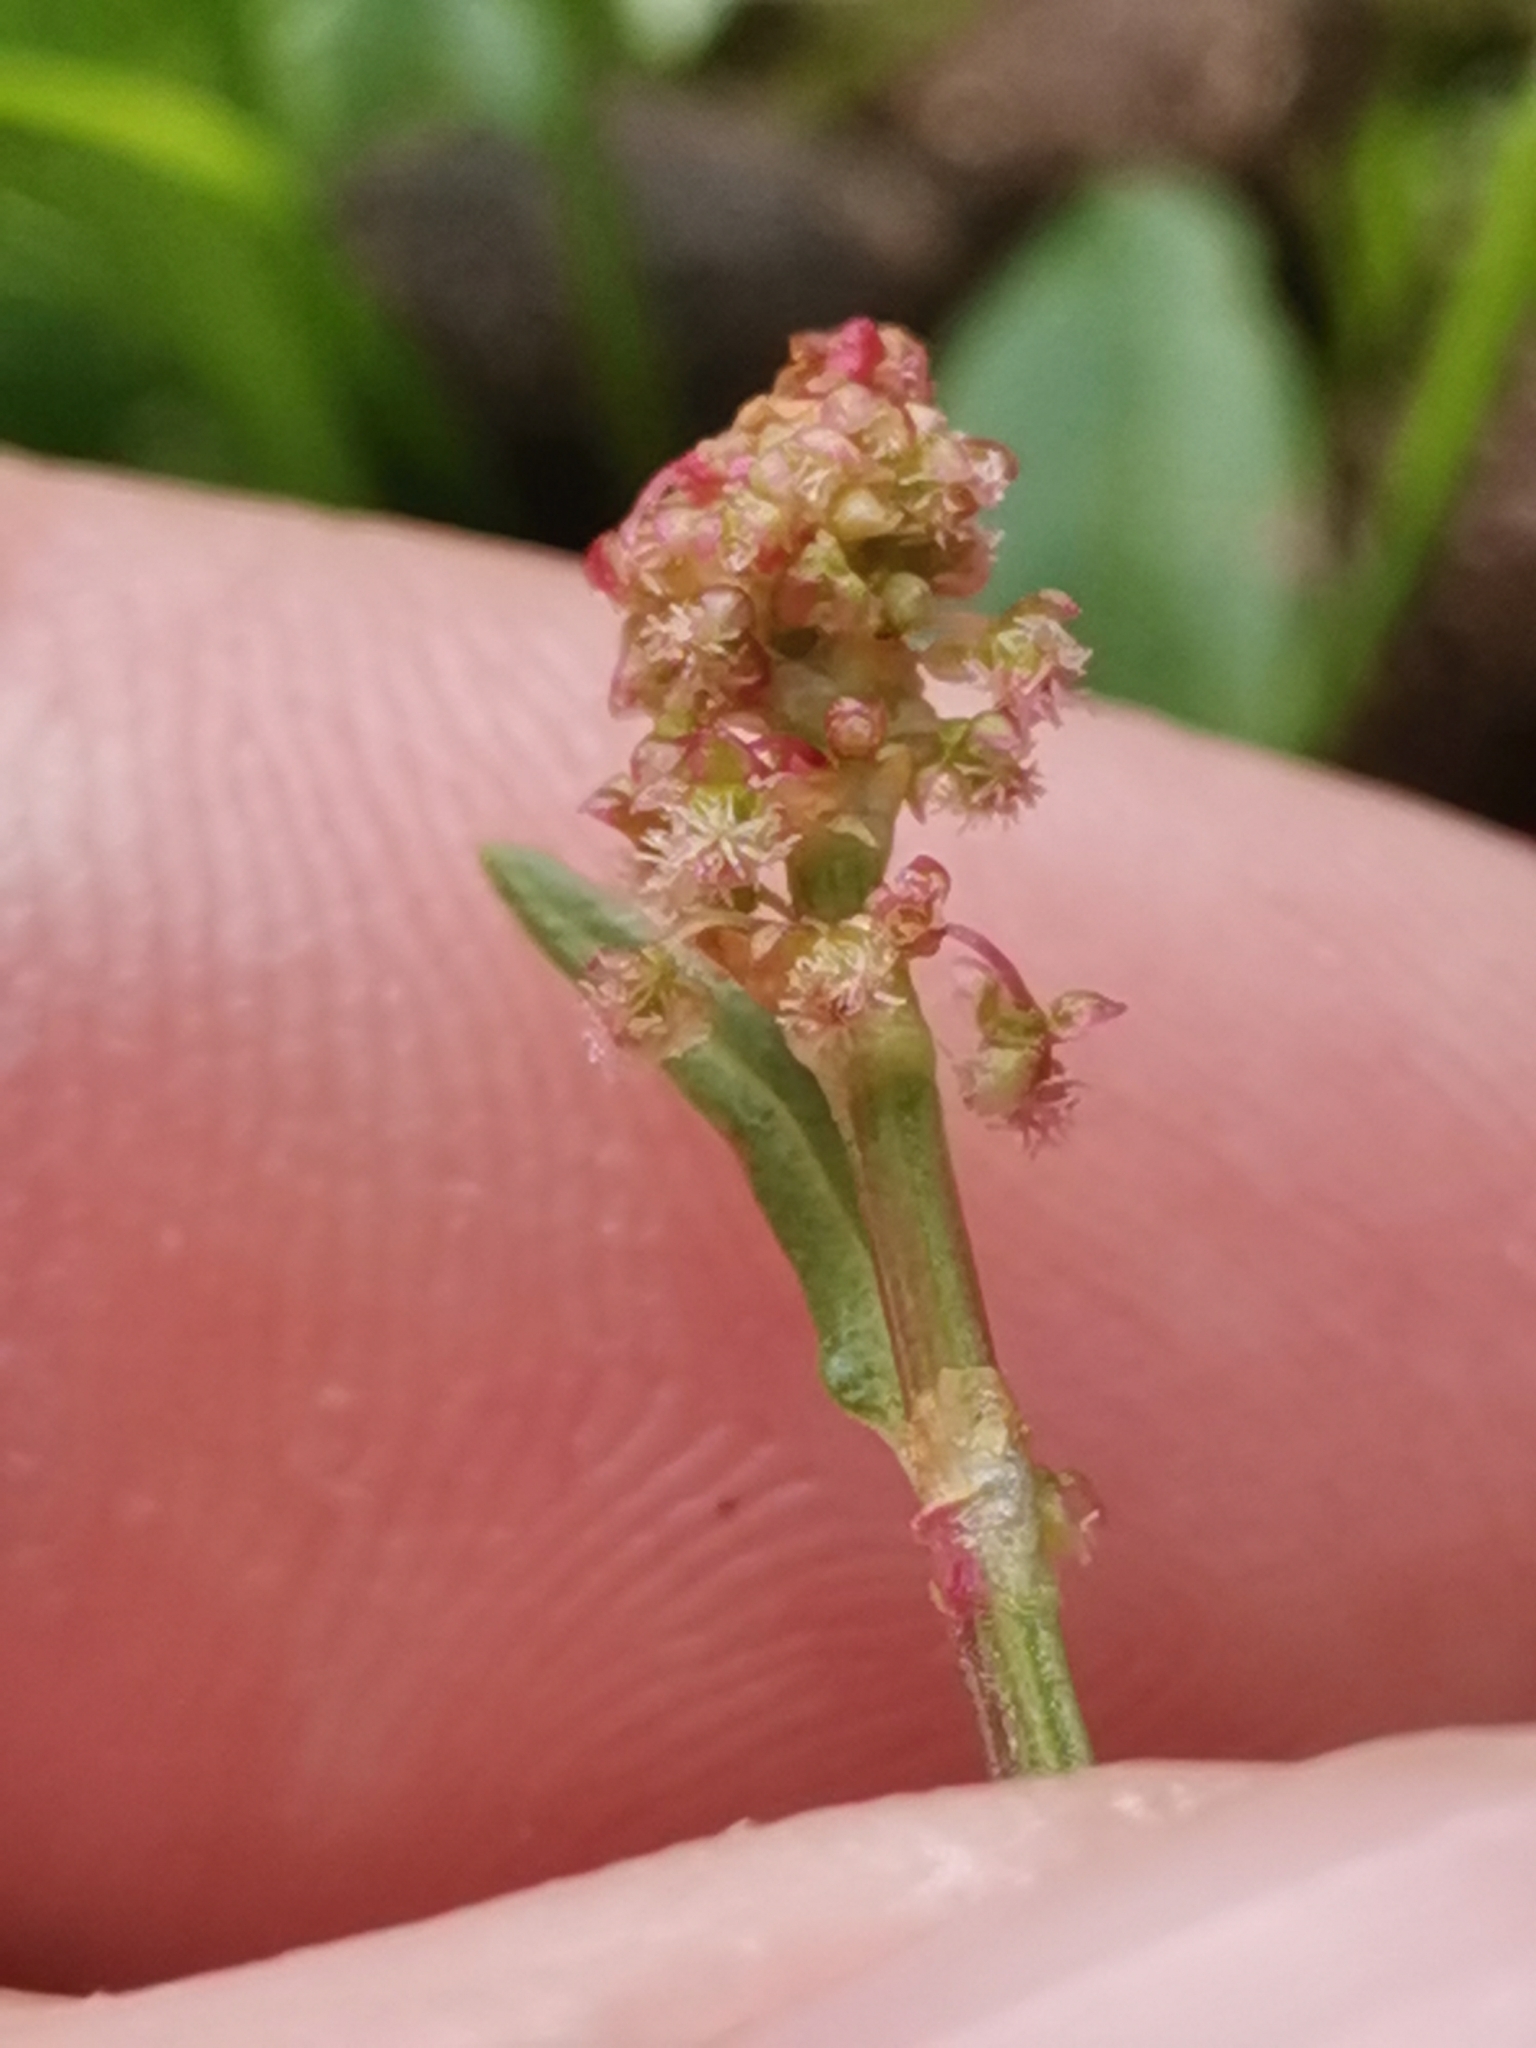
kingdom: Plantae
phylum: Tracheophyta
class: Magnoliopsida
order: Caryophyllales
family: Polygonaceae
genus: Rumex
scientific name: Rumex nivalis
